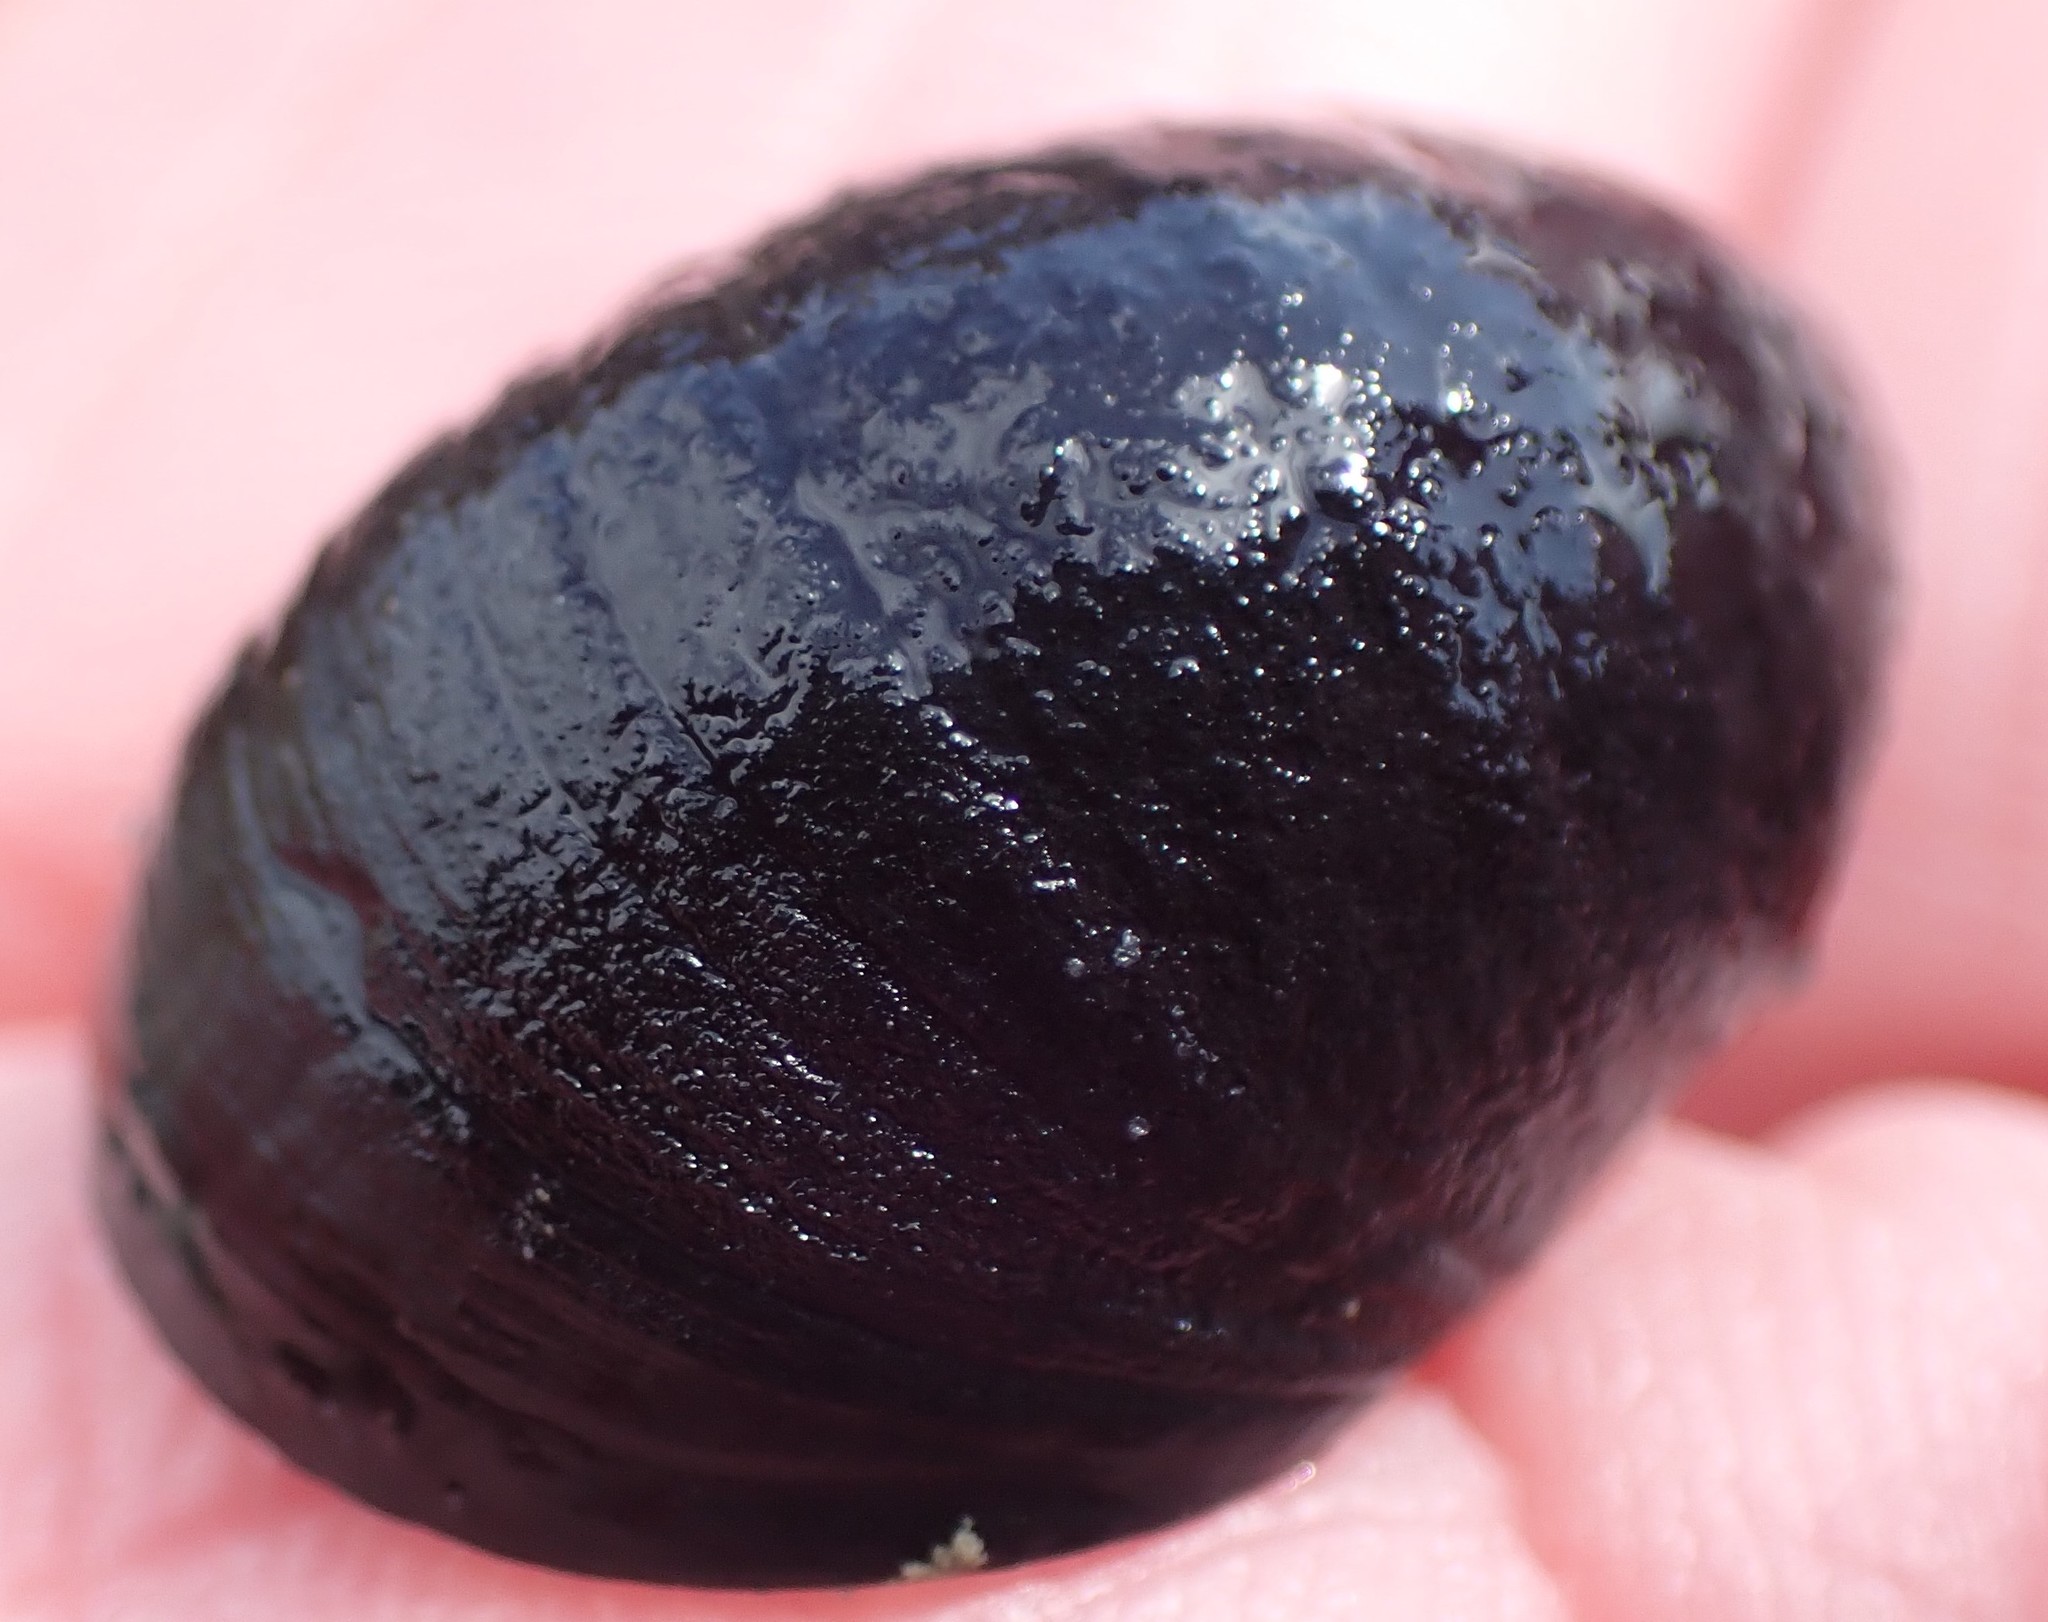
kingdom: Animalia
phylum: Mollusca
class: Gastropoda
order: Cycloneritida
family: Neritidae
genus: Nerita
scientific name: Nerita atramentosa
